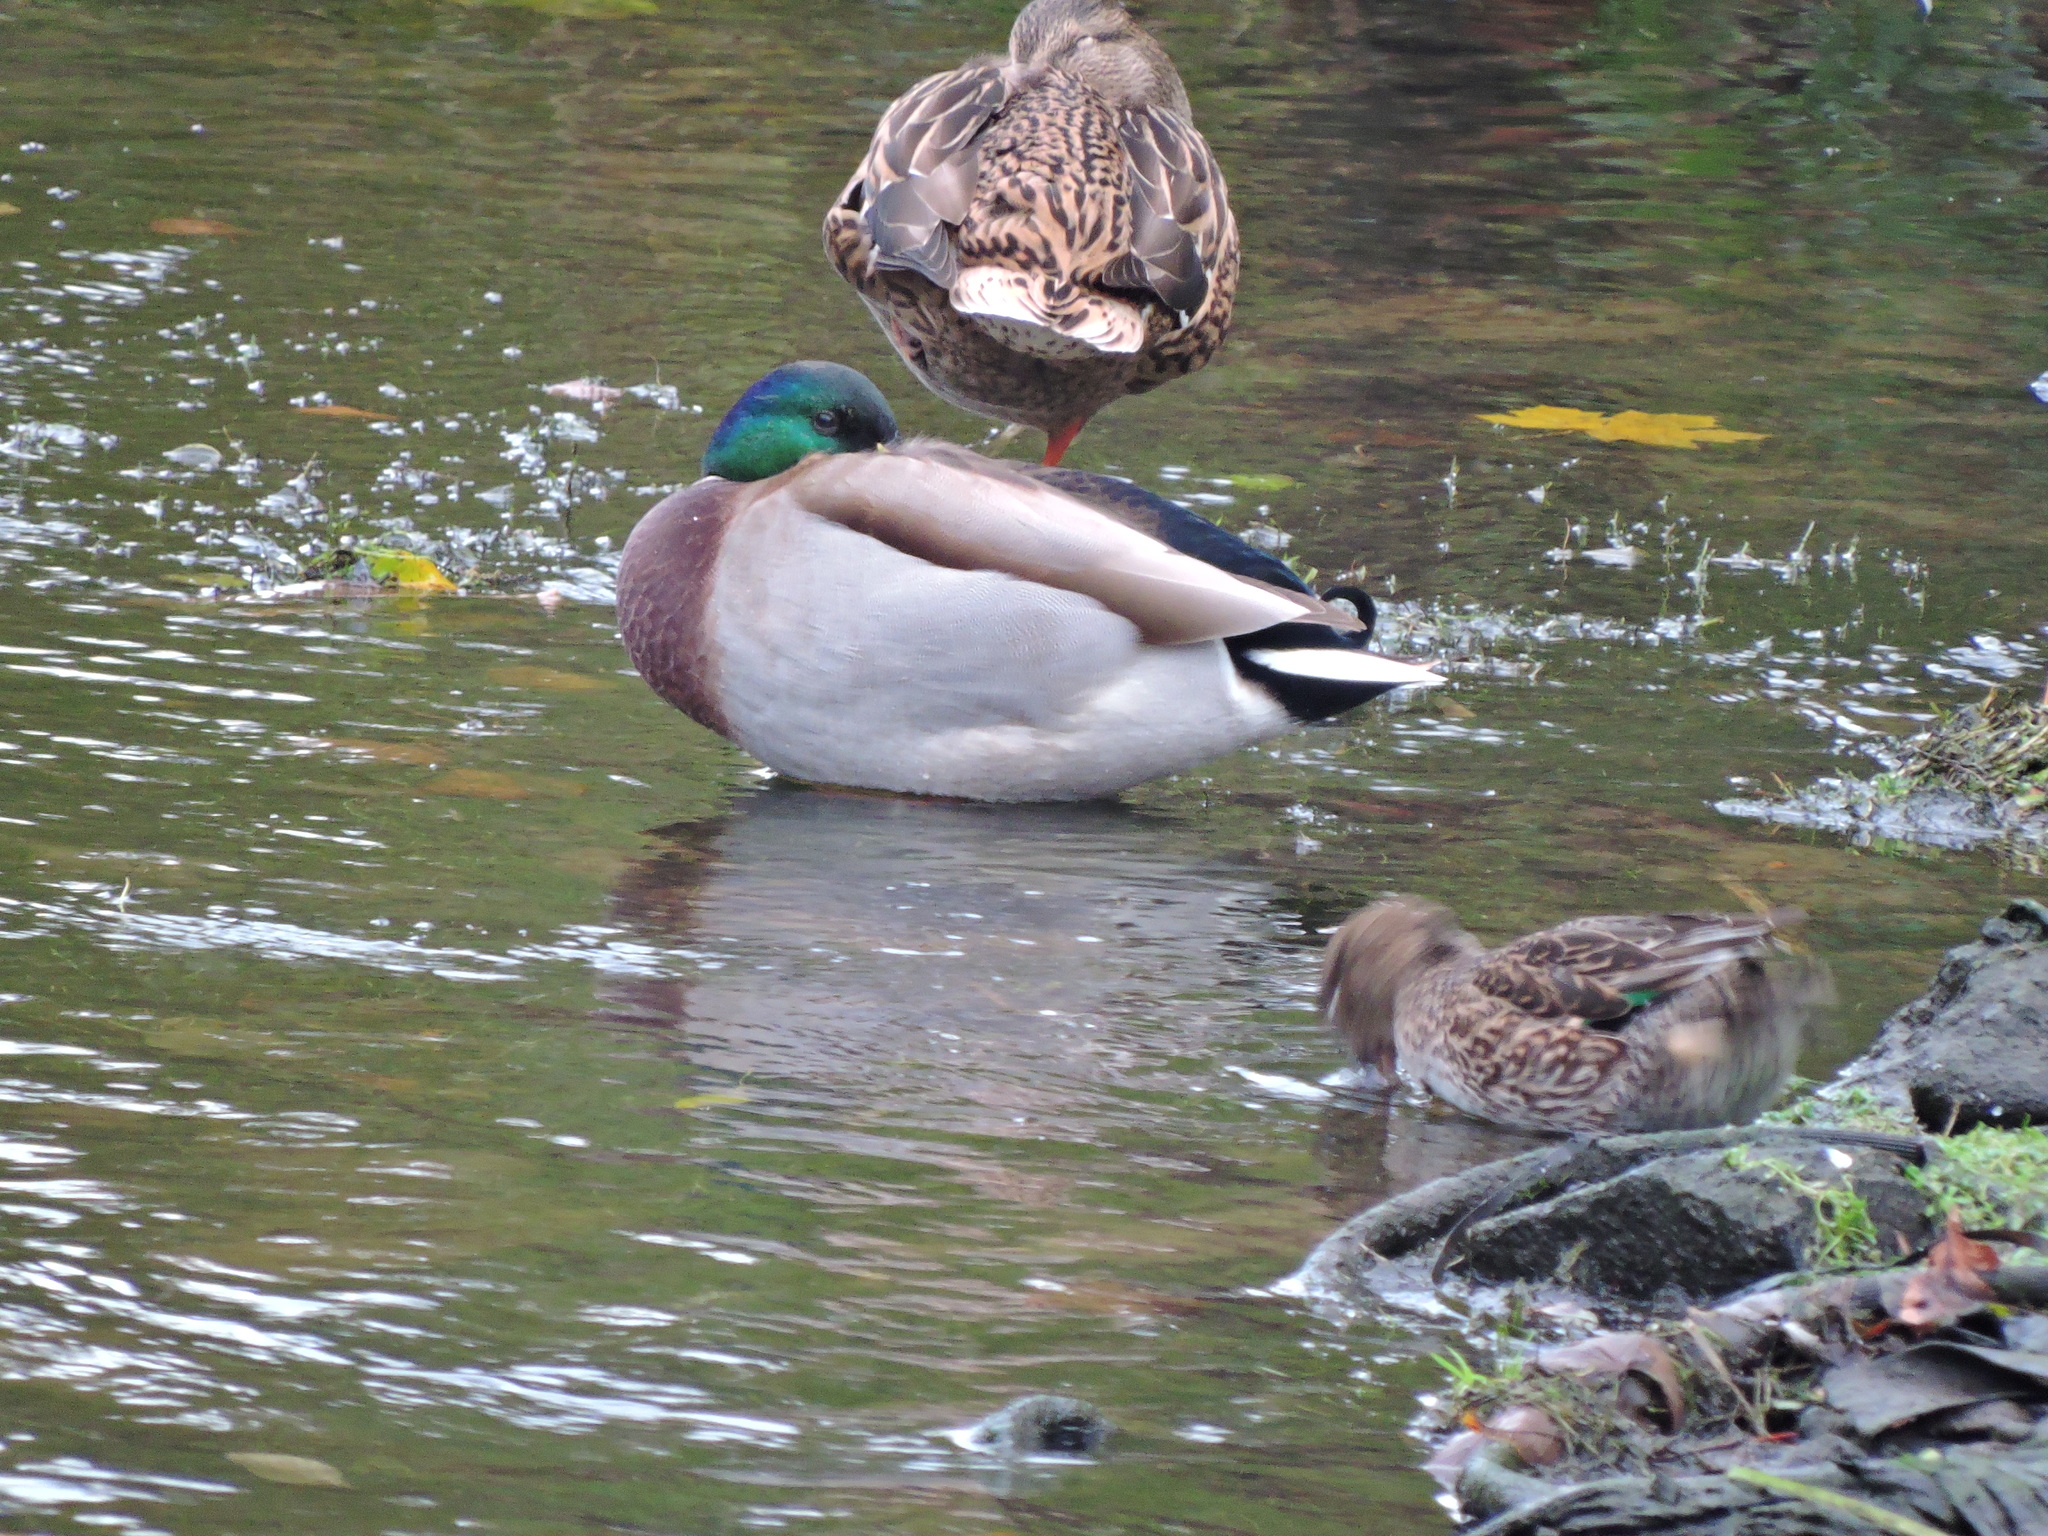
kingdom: Animalia
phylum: Chordata
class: Aves
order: Anseriformes
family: Anatidae
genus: Anas
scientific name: Anas platyrhynchos
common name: Mallard
